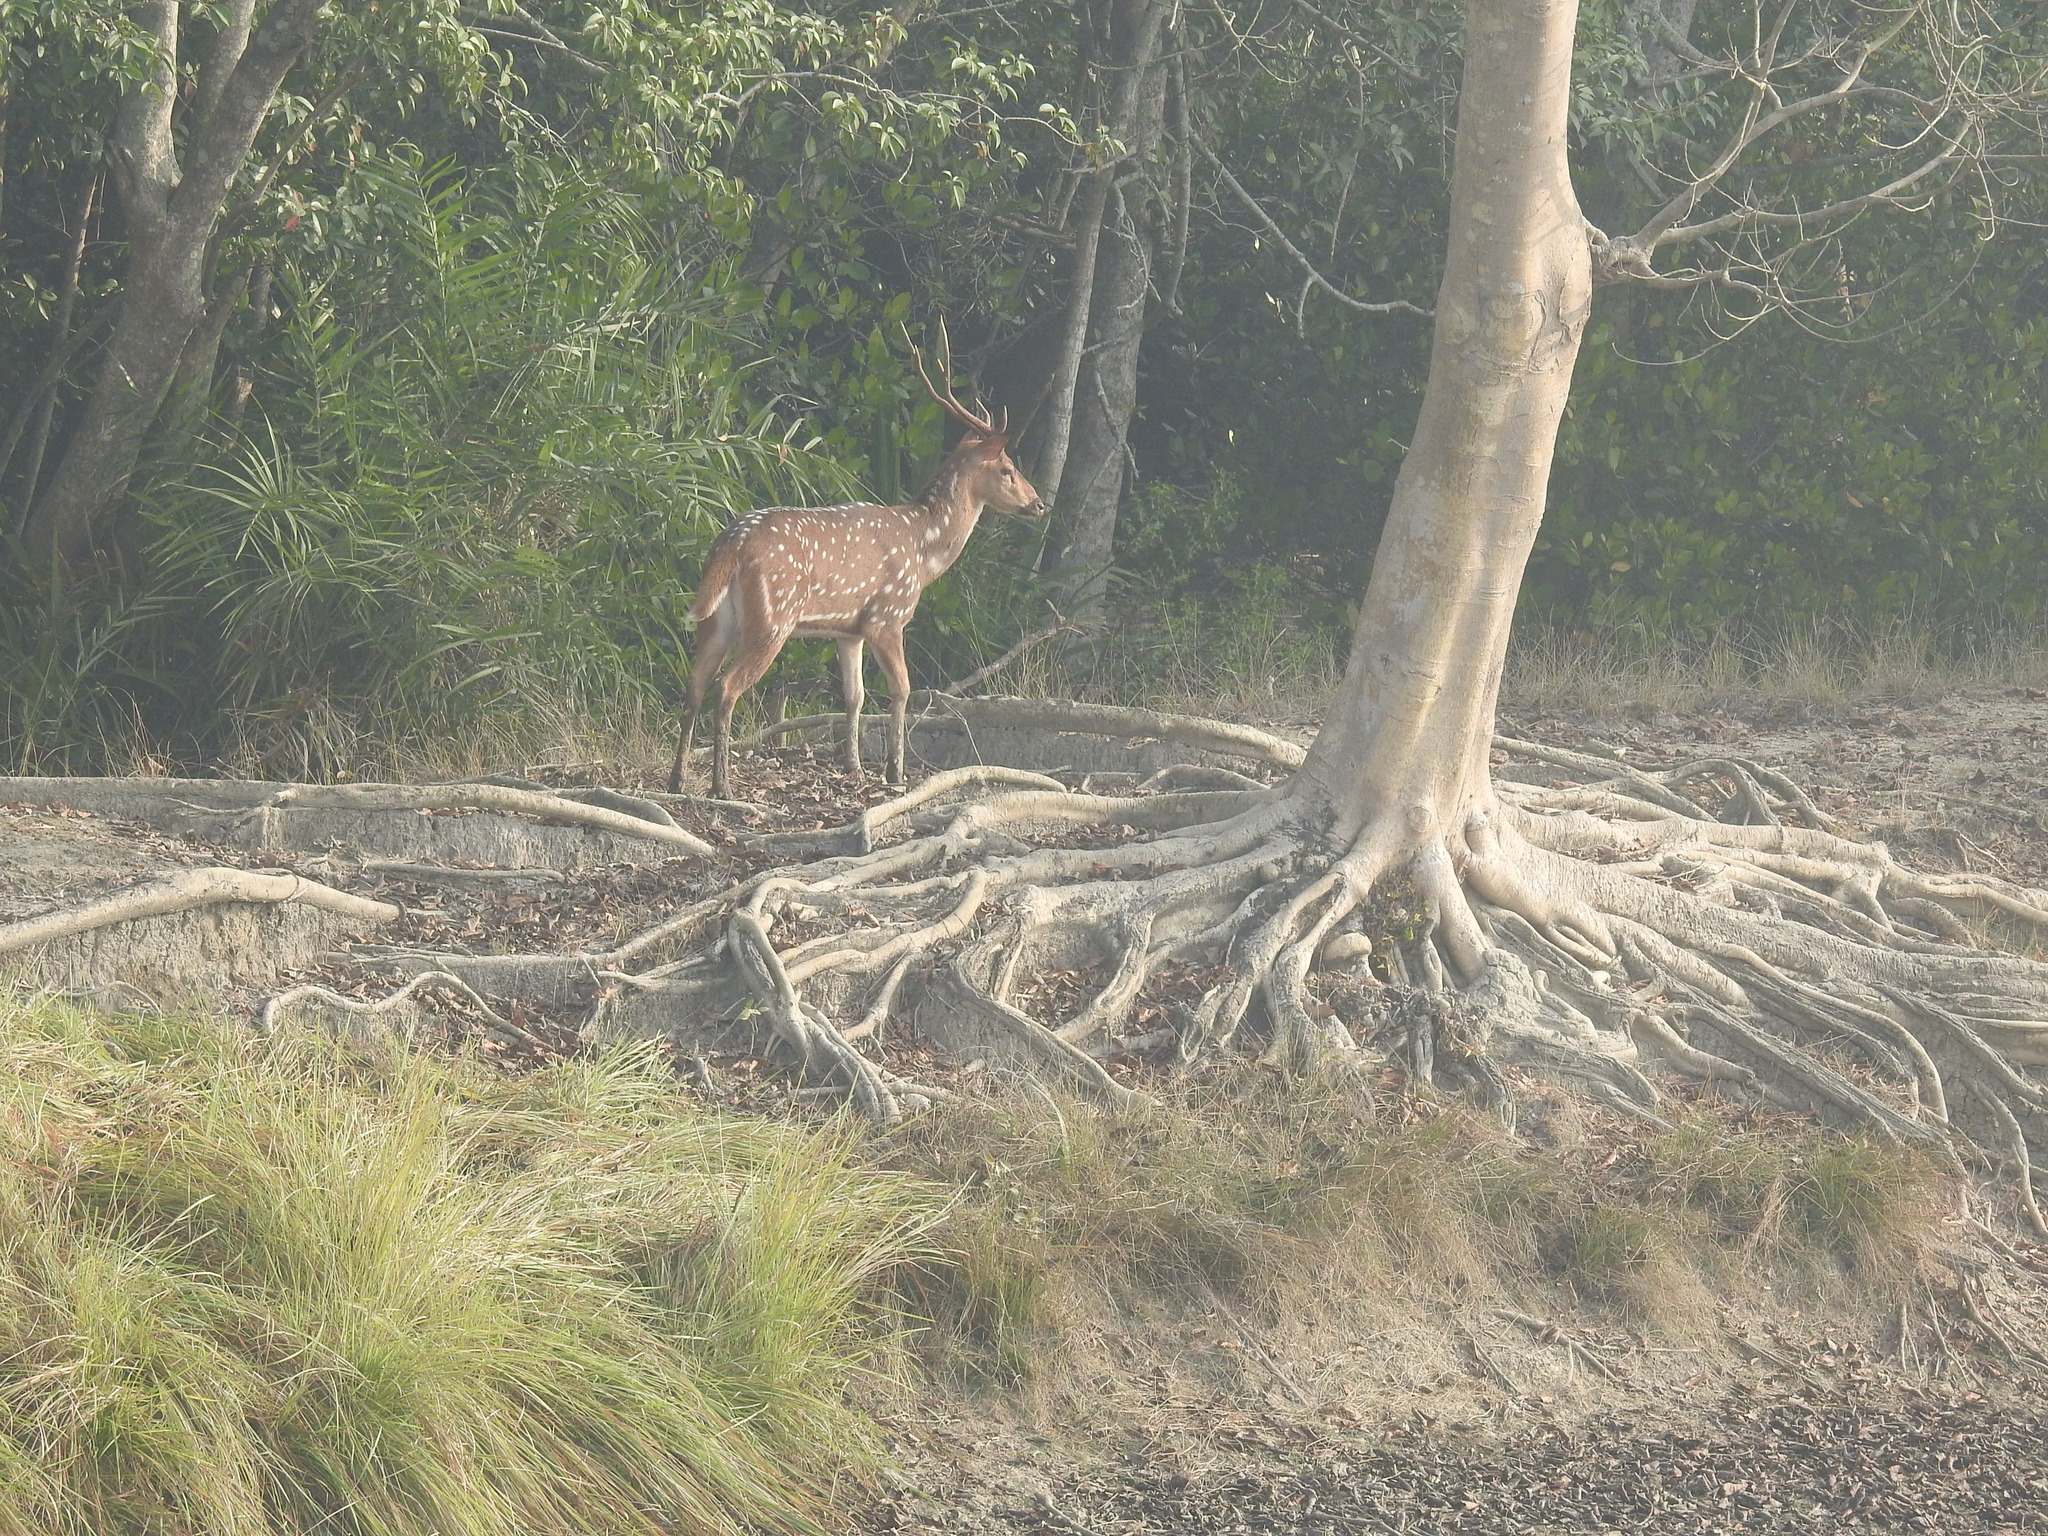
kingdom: Animalia
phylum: Chordata
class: Mammalia
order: Artiodactyla
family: Cervidae
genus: Axis
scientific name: Axis axis
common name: Chital
